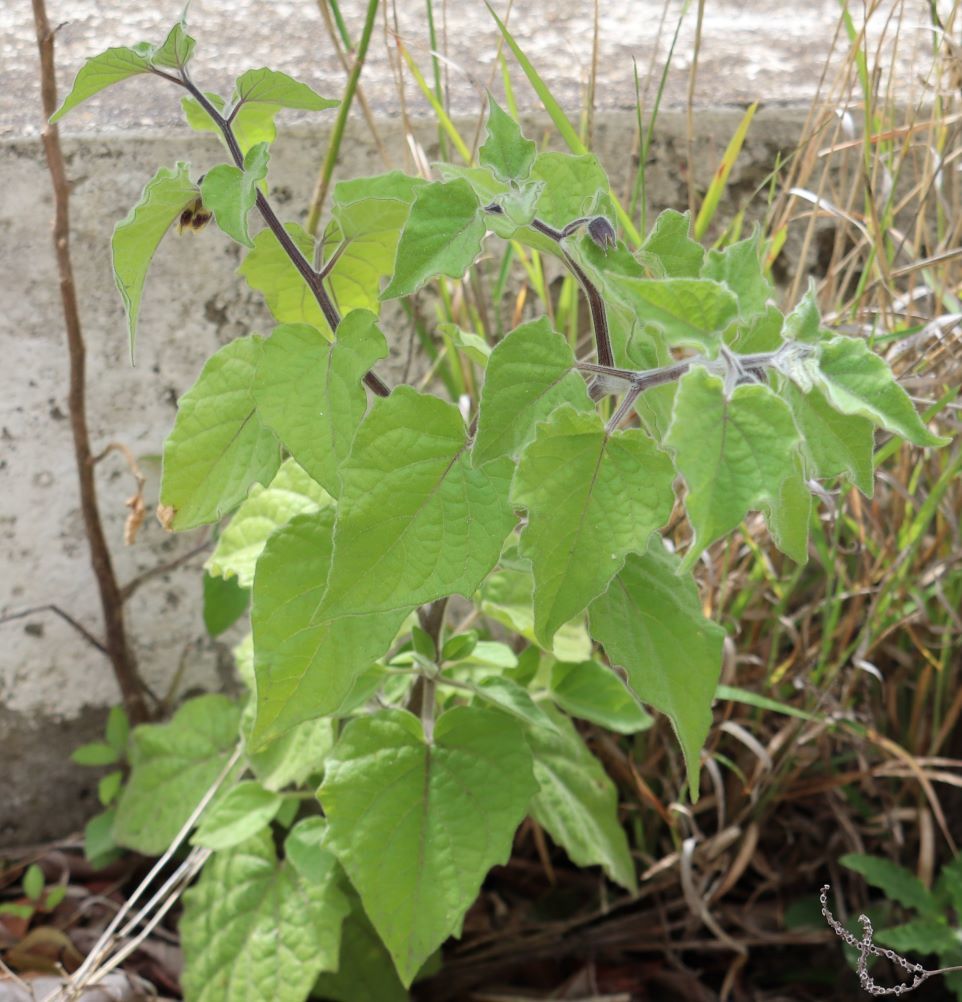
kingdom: Plantae
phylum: Tracheophyta
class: Magnoliopsida
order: Solanales
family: Solanaceae
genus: Physalis
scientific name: Physalis peruviana
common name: Cape-gooseberry
